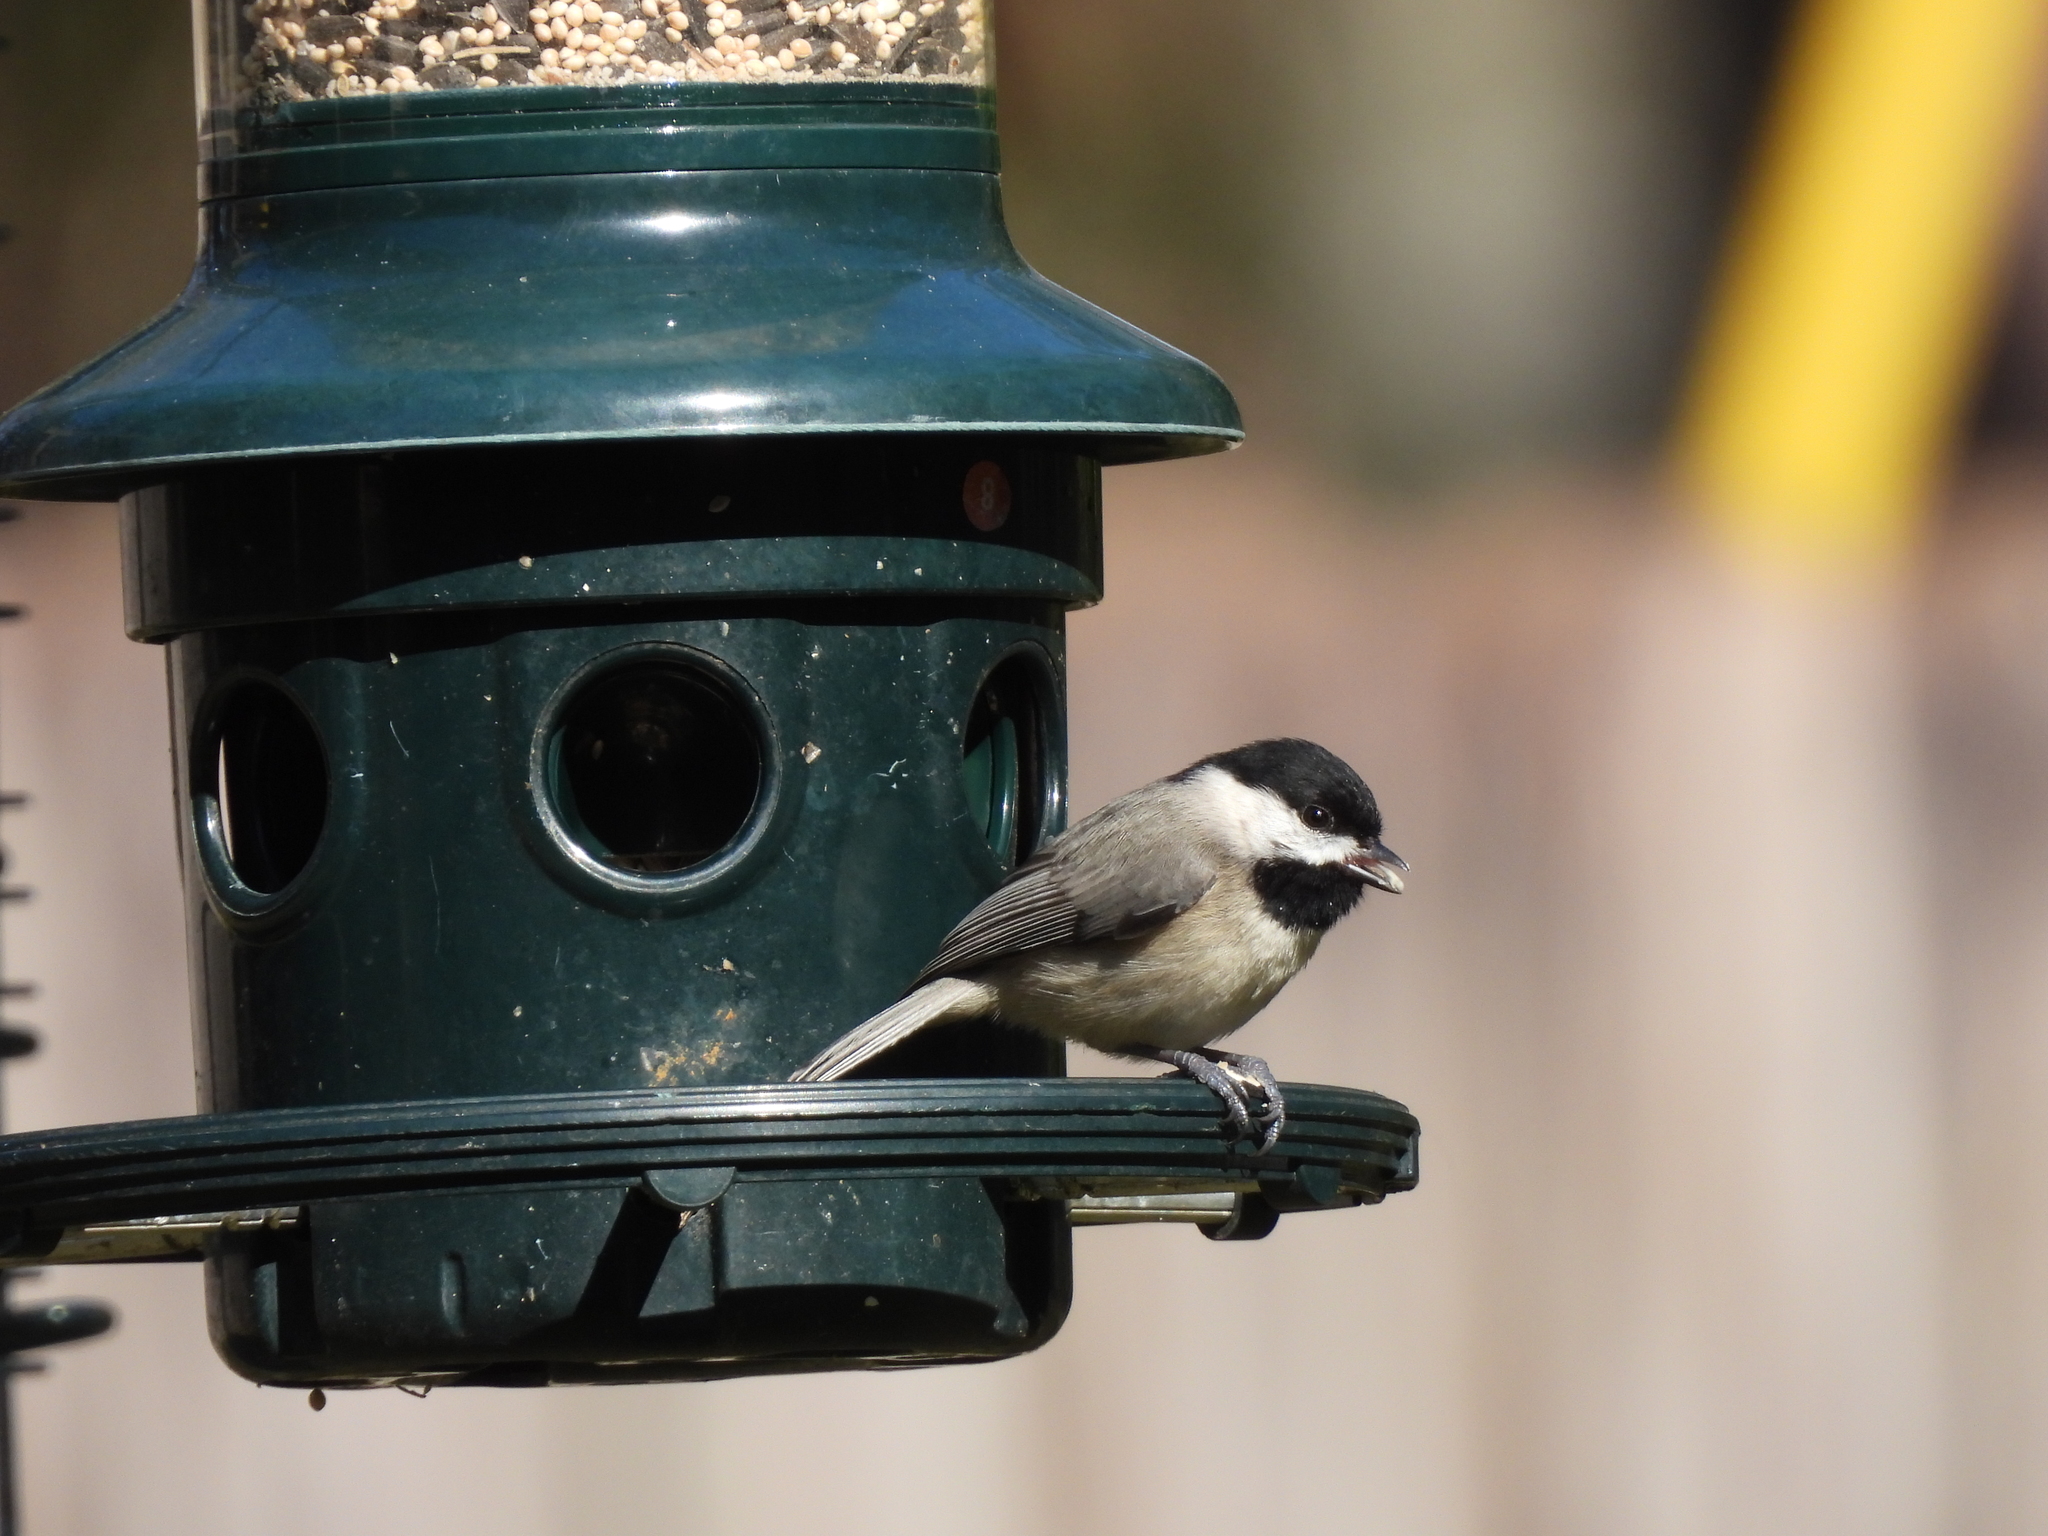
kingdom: Animalia
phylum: Chordata
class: Aves
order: Passeriformes
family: Paridae
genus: Poecile
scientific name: Poecile carolinensis
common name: Carolina chickadee
